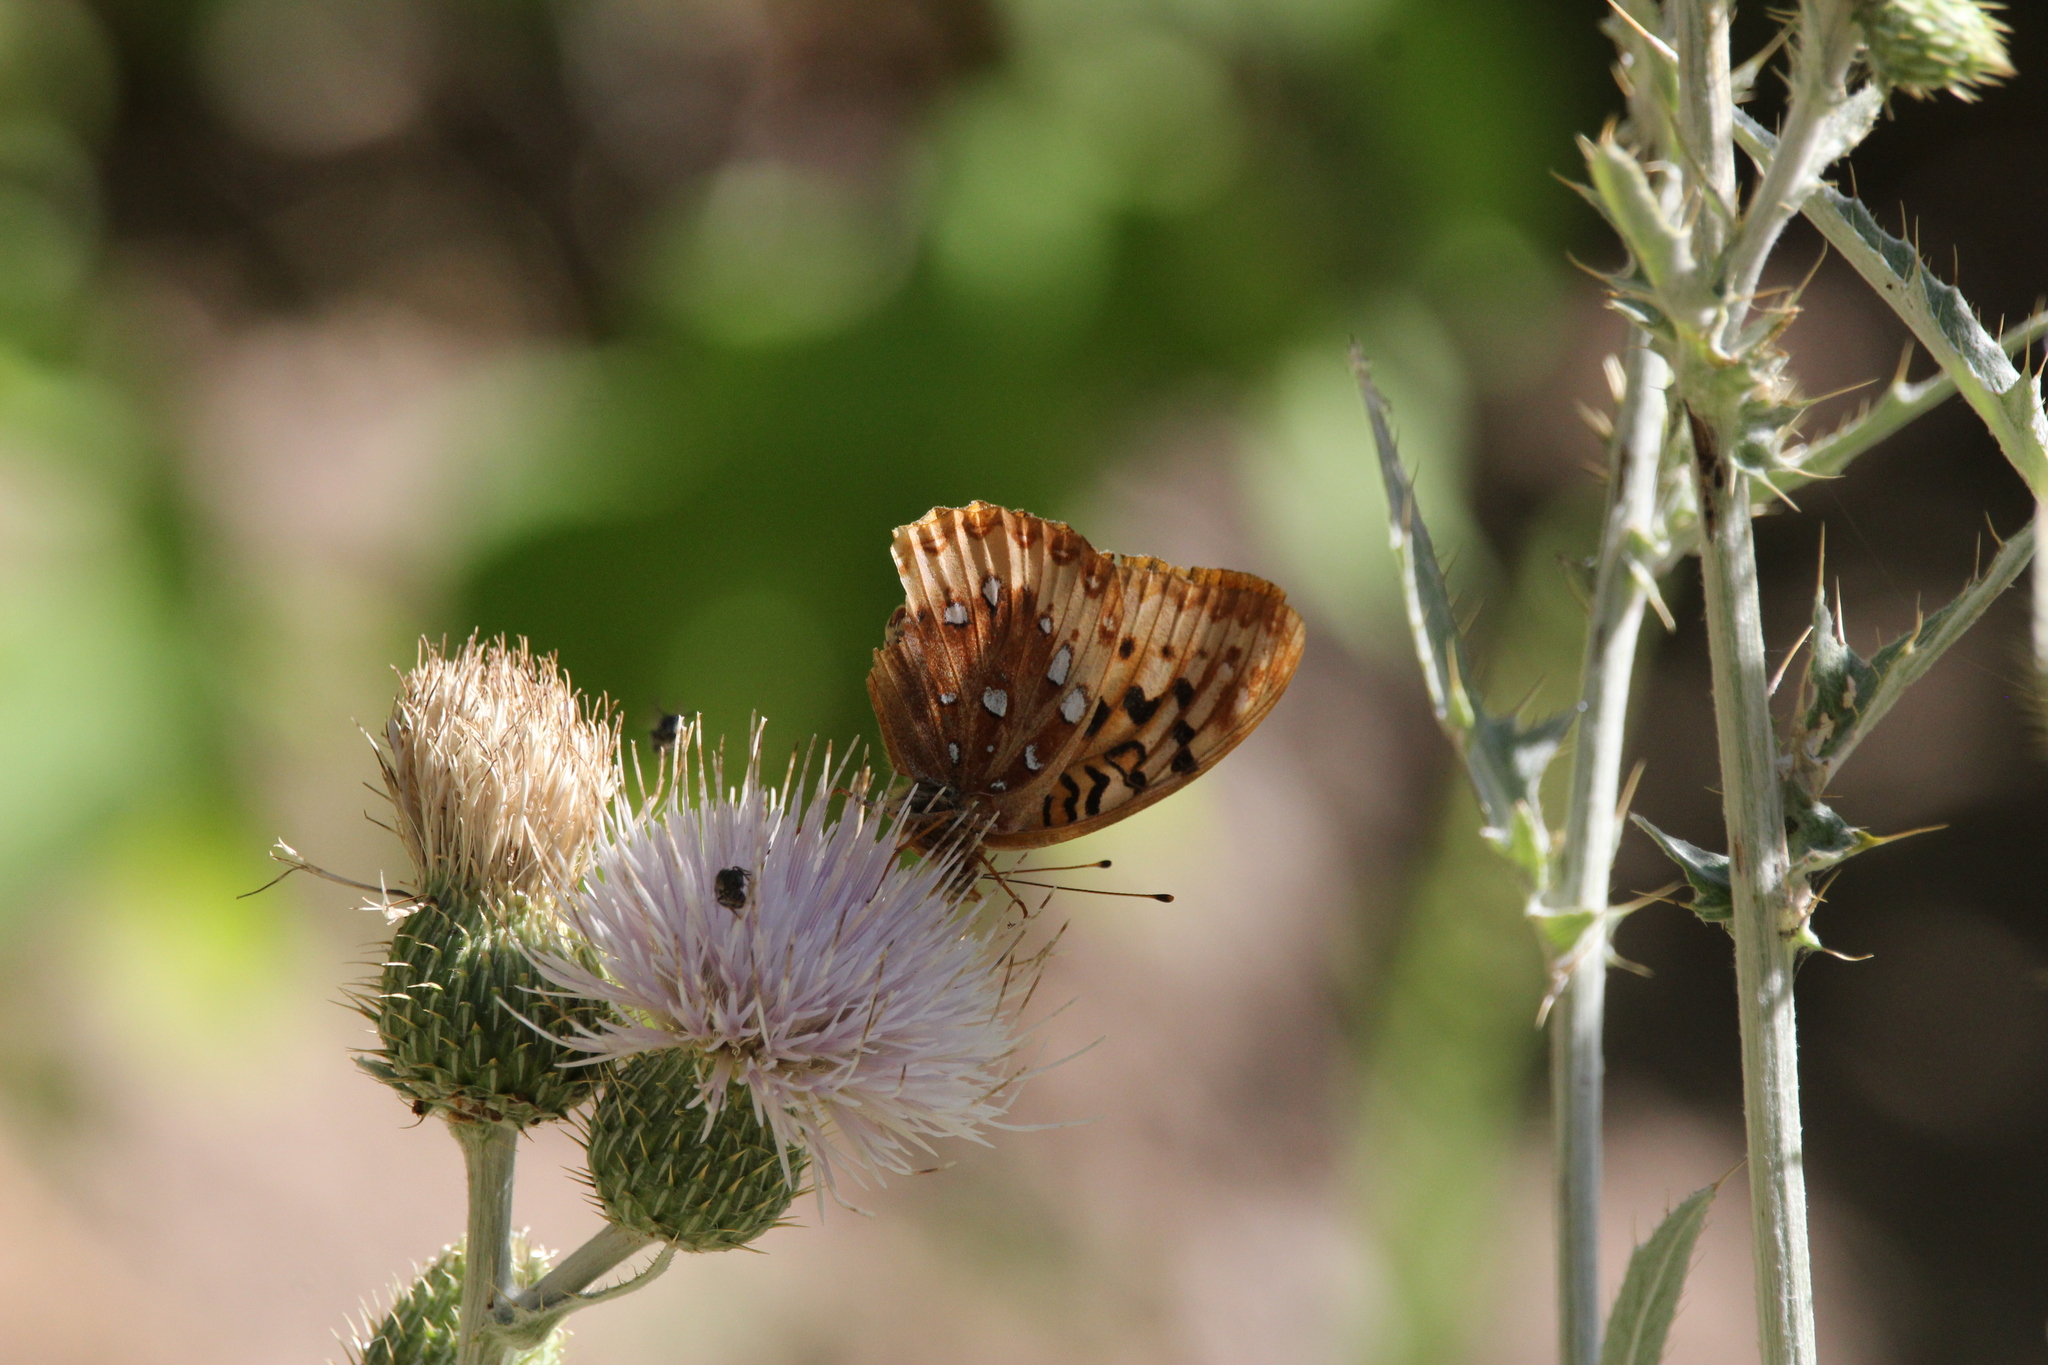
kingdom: Animalia
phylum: Arthropoda
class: Insecta
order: Lepidoptera
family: Nymphalidae
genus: Speyeria
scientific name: Speyeria cybele
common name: Great spangled fritillary
